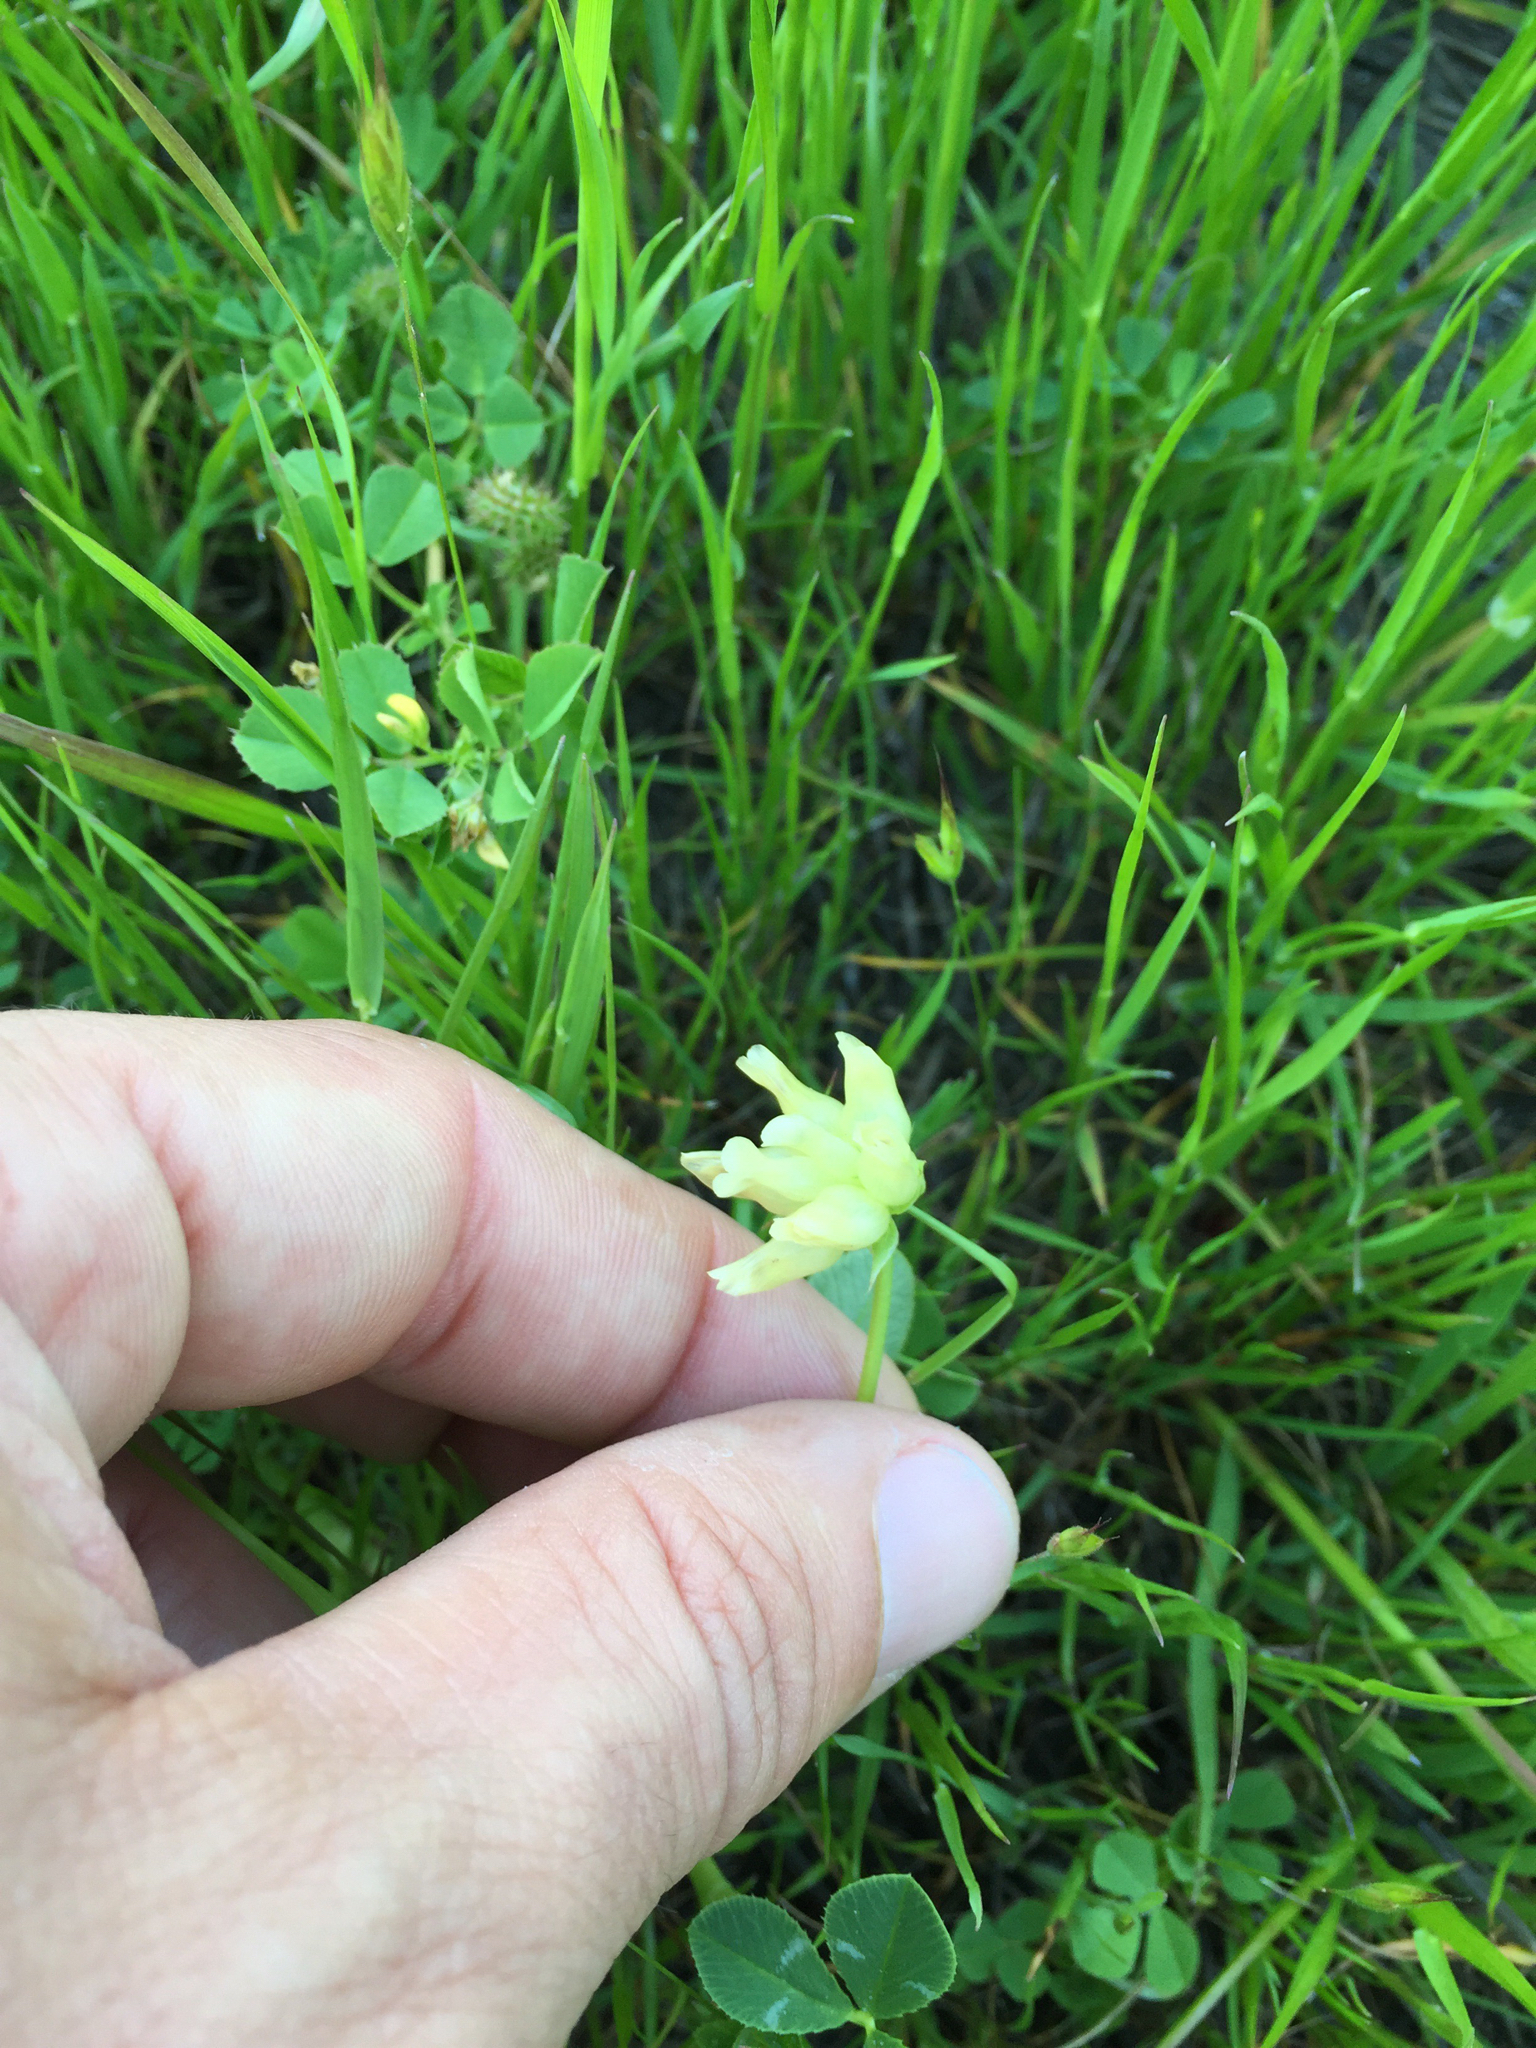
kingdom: Plantae
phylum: Tracheophyta
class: Magnoliopsida
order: Fabales
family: Fabaceae
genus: Trifolium
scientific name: Trifolium fucatum
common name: Puff clover
